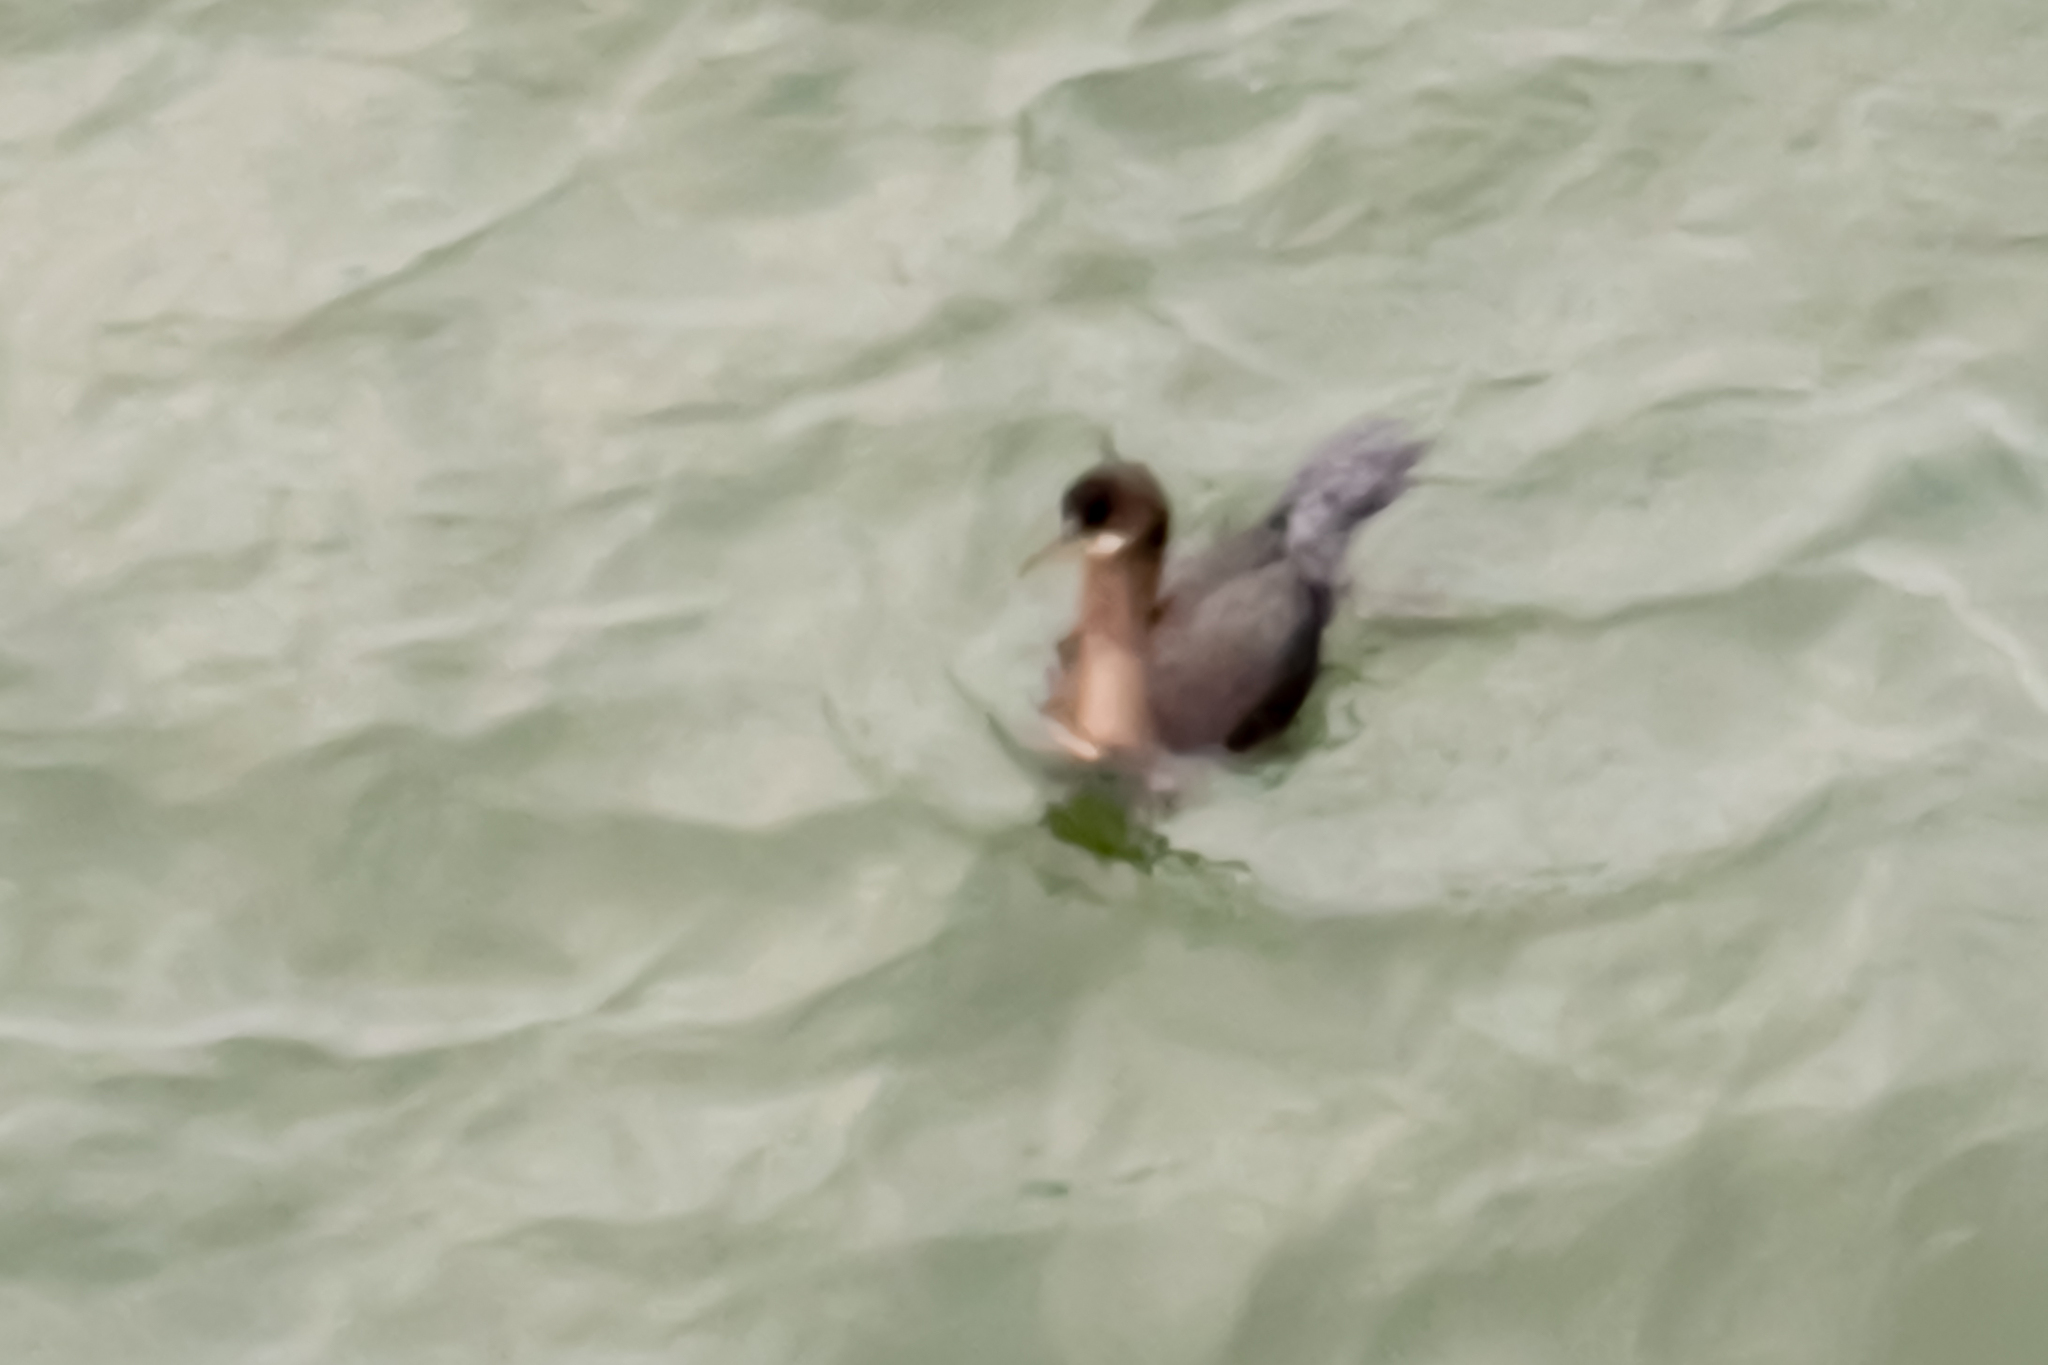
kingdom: Animalia
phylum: Chordata
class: Aves
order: Suliformes
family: Phalacrocoracidae
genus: Phalacrocorax
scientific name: Phalacrocorax aristotelis
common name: European shag
